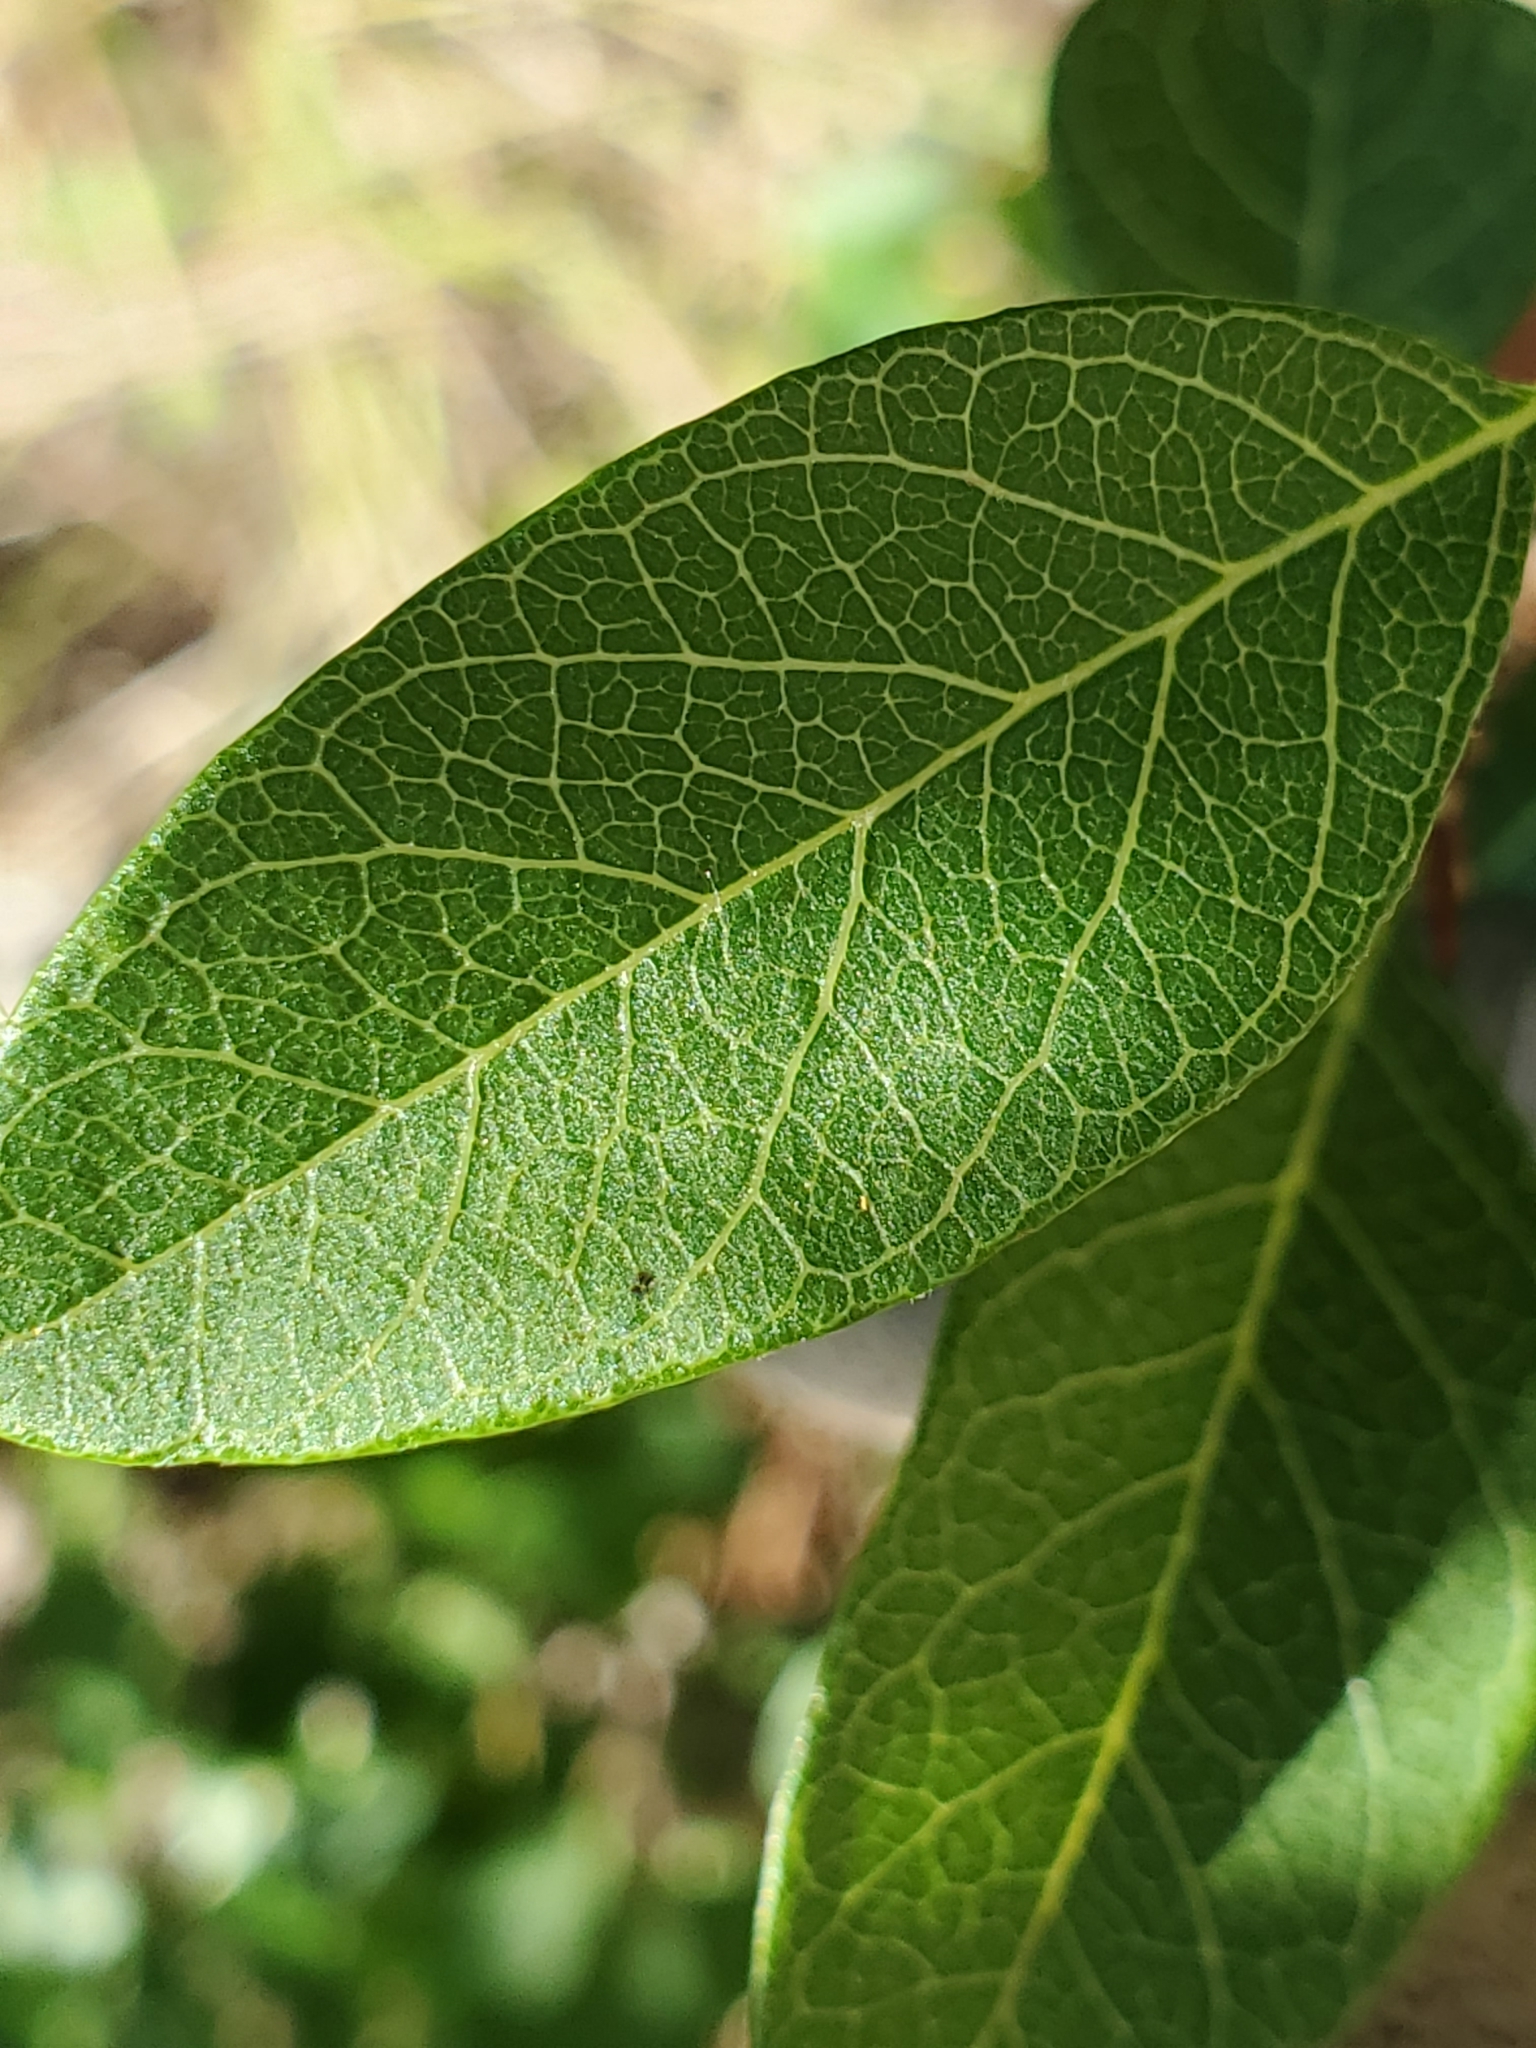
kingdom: Plantae
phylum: Tracheophyta
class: Magnoliopsida
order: Ericales
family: Sapotaceae
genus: Sideroxylon
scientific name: Sideroxylon lanuginosum
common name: Chittamwood
